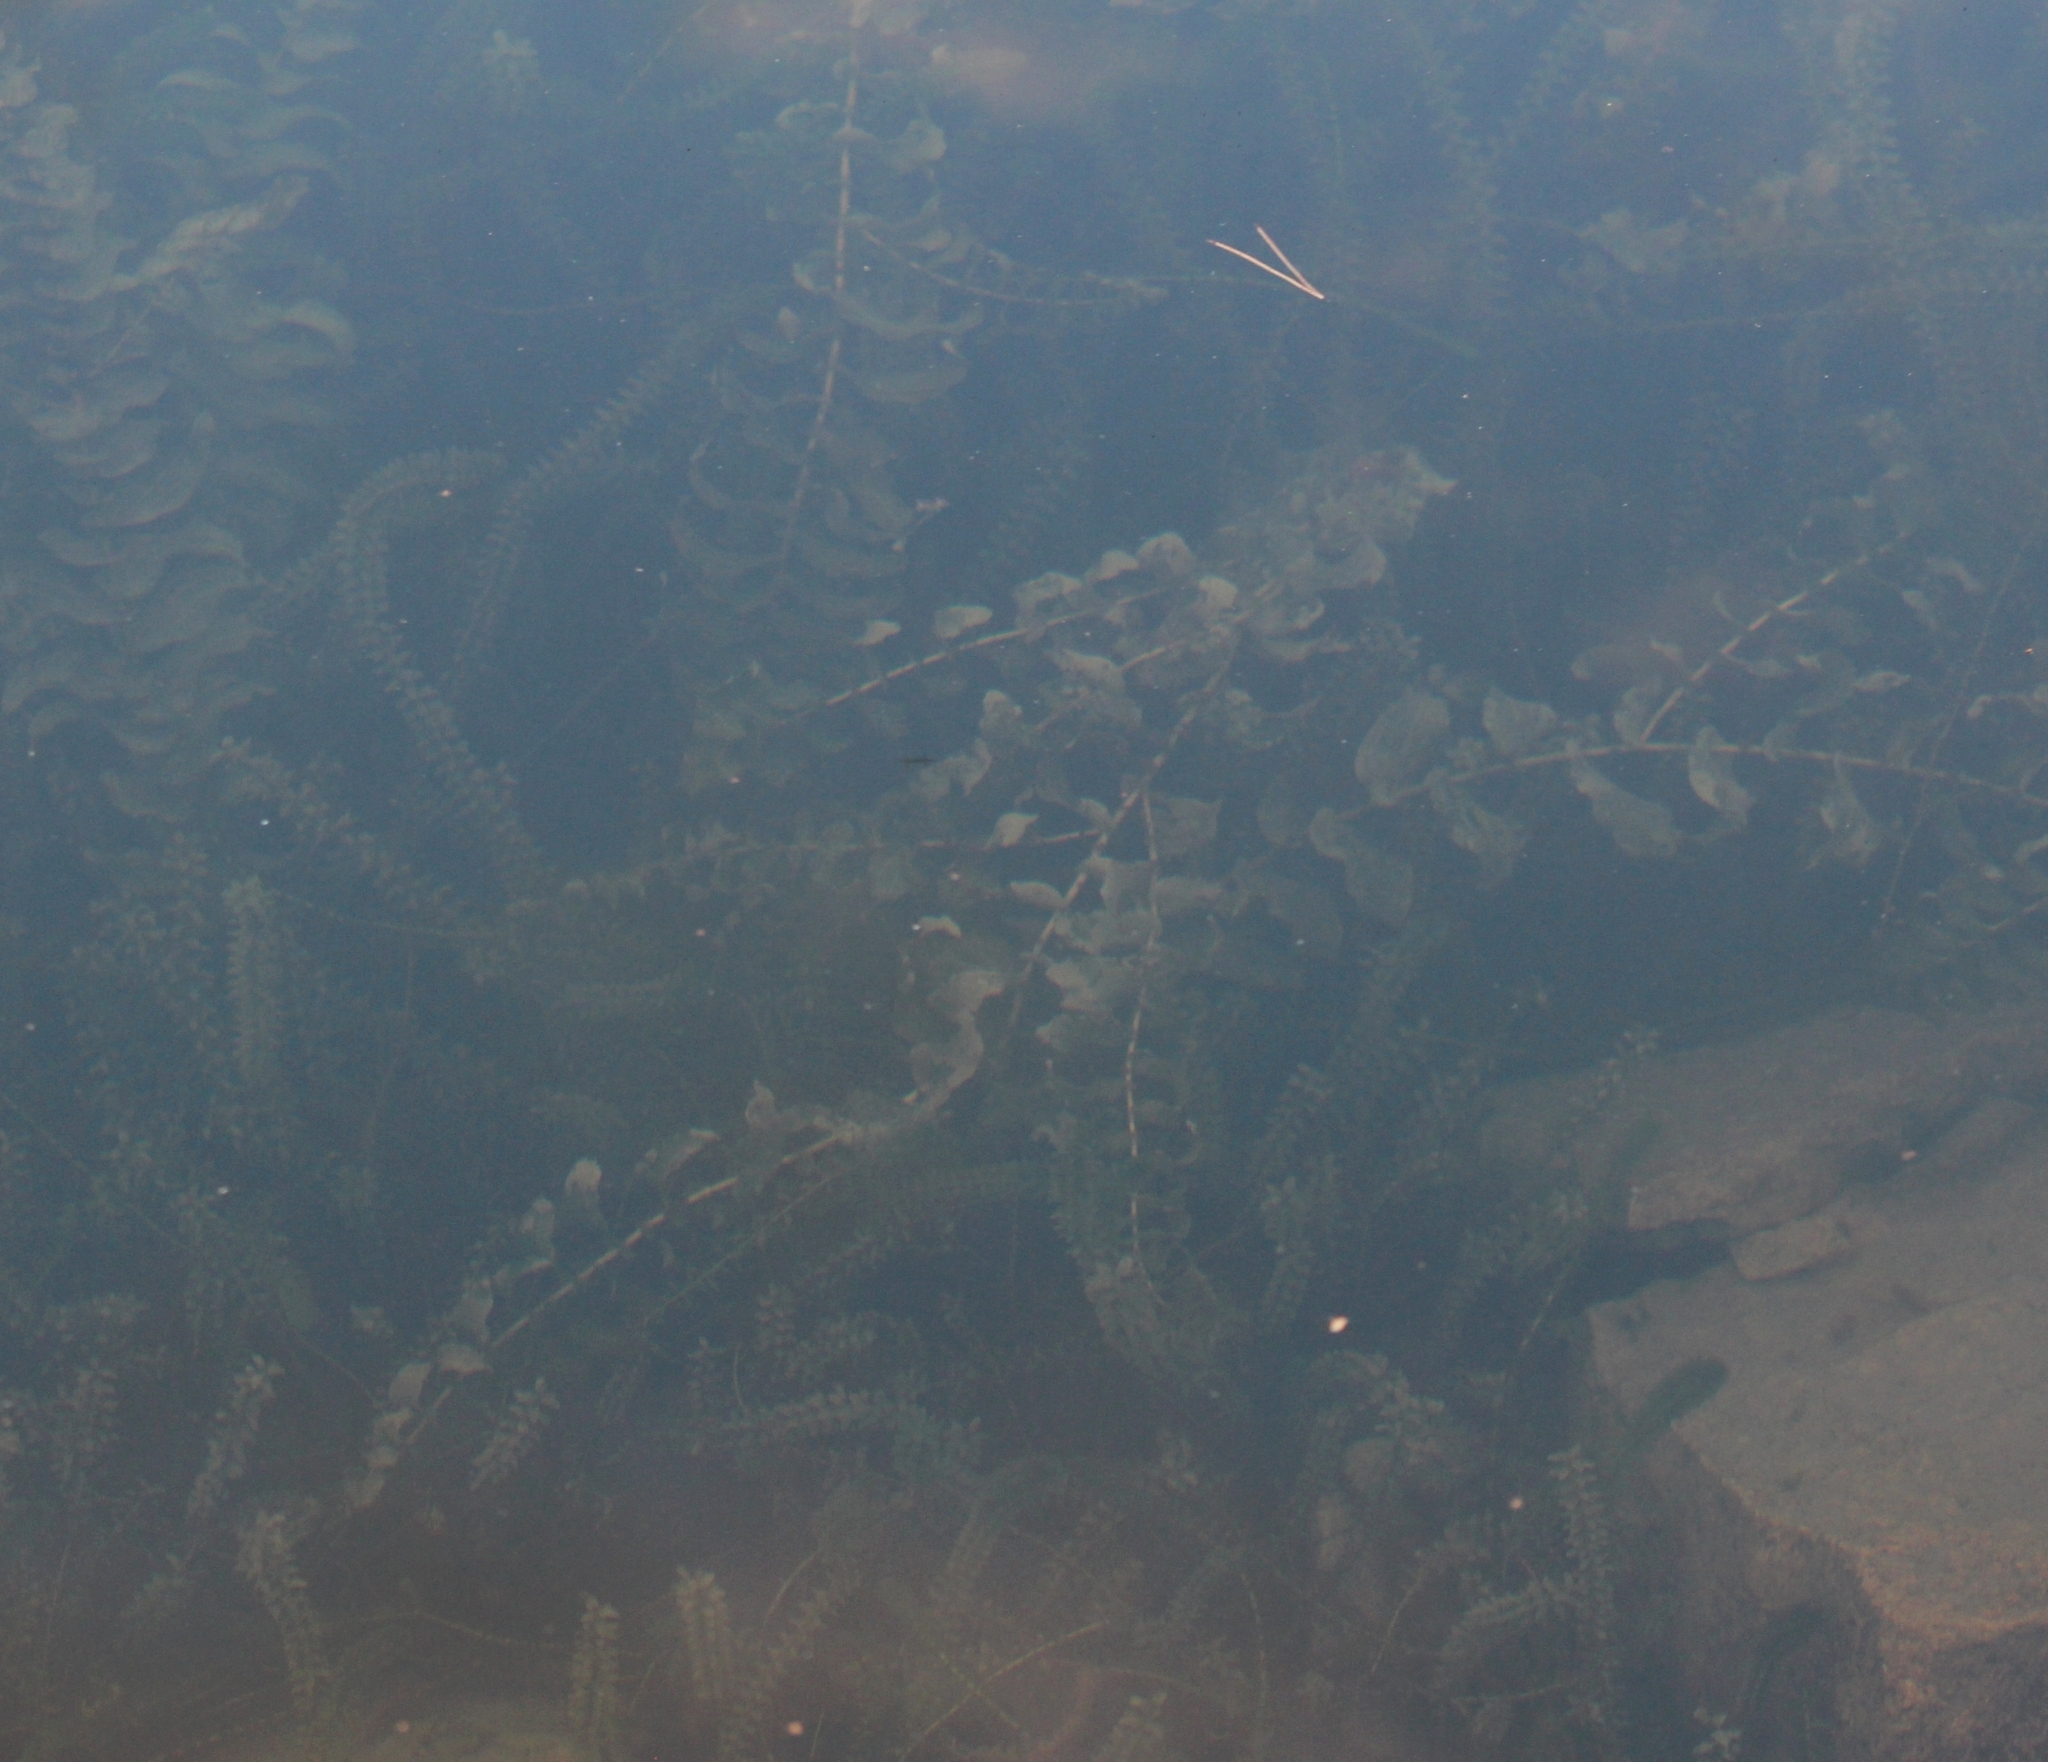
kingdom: Plantae
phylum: Tracheophyta
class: Liliopsida
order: Alismatales
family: Potamogetonaceae
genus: Potamogeton
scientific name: Potamogeton perfoliatus
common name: Perfoliate pondweed
